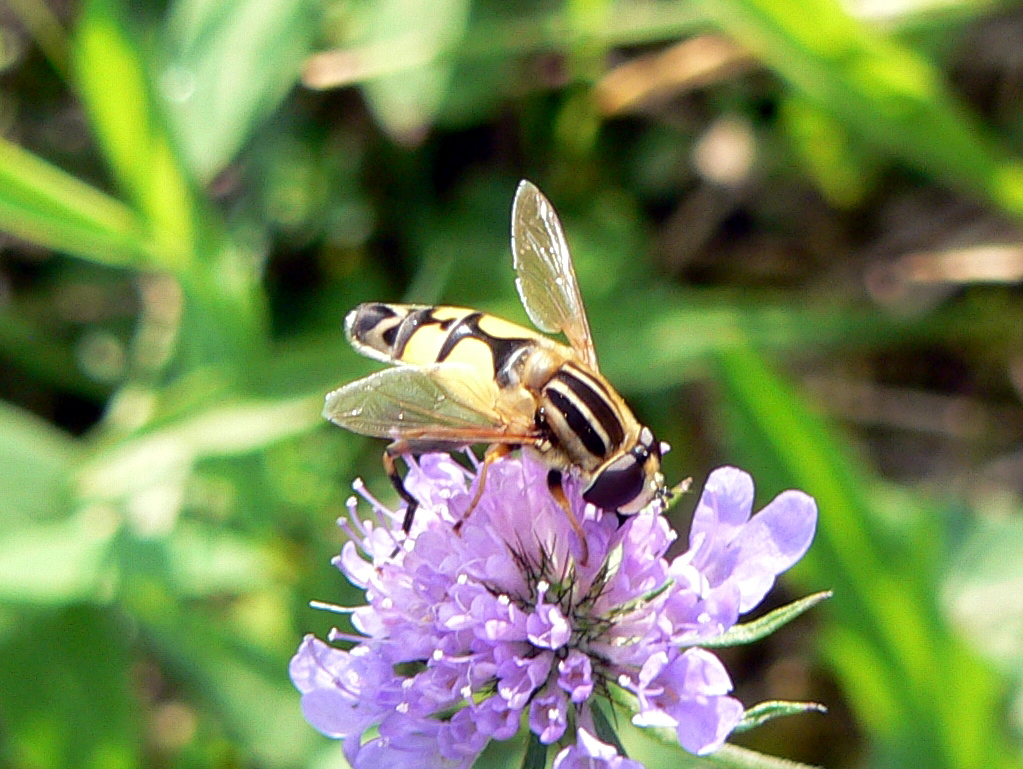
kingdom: Animalia
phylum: Arthropoda
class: Insecta
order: Diptera
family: Syrphidae
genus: Helophilus
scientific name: Helophilus trivittatus
